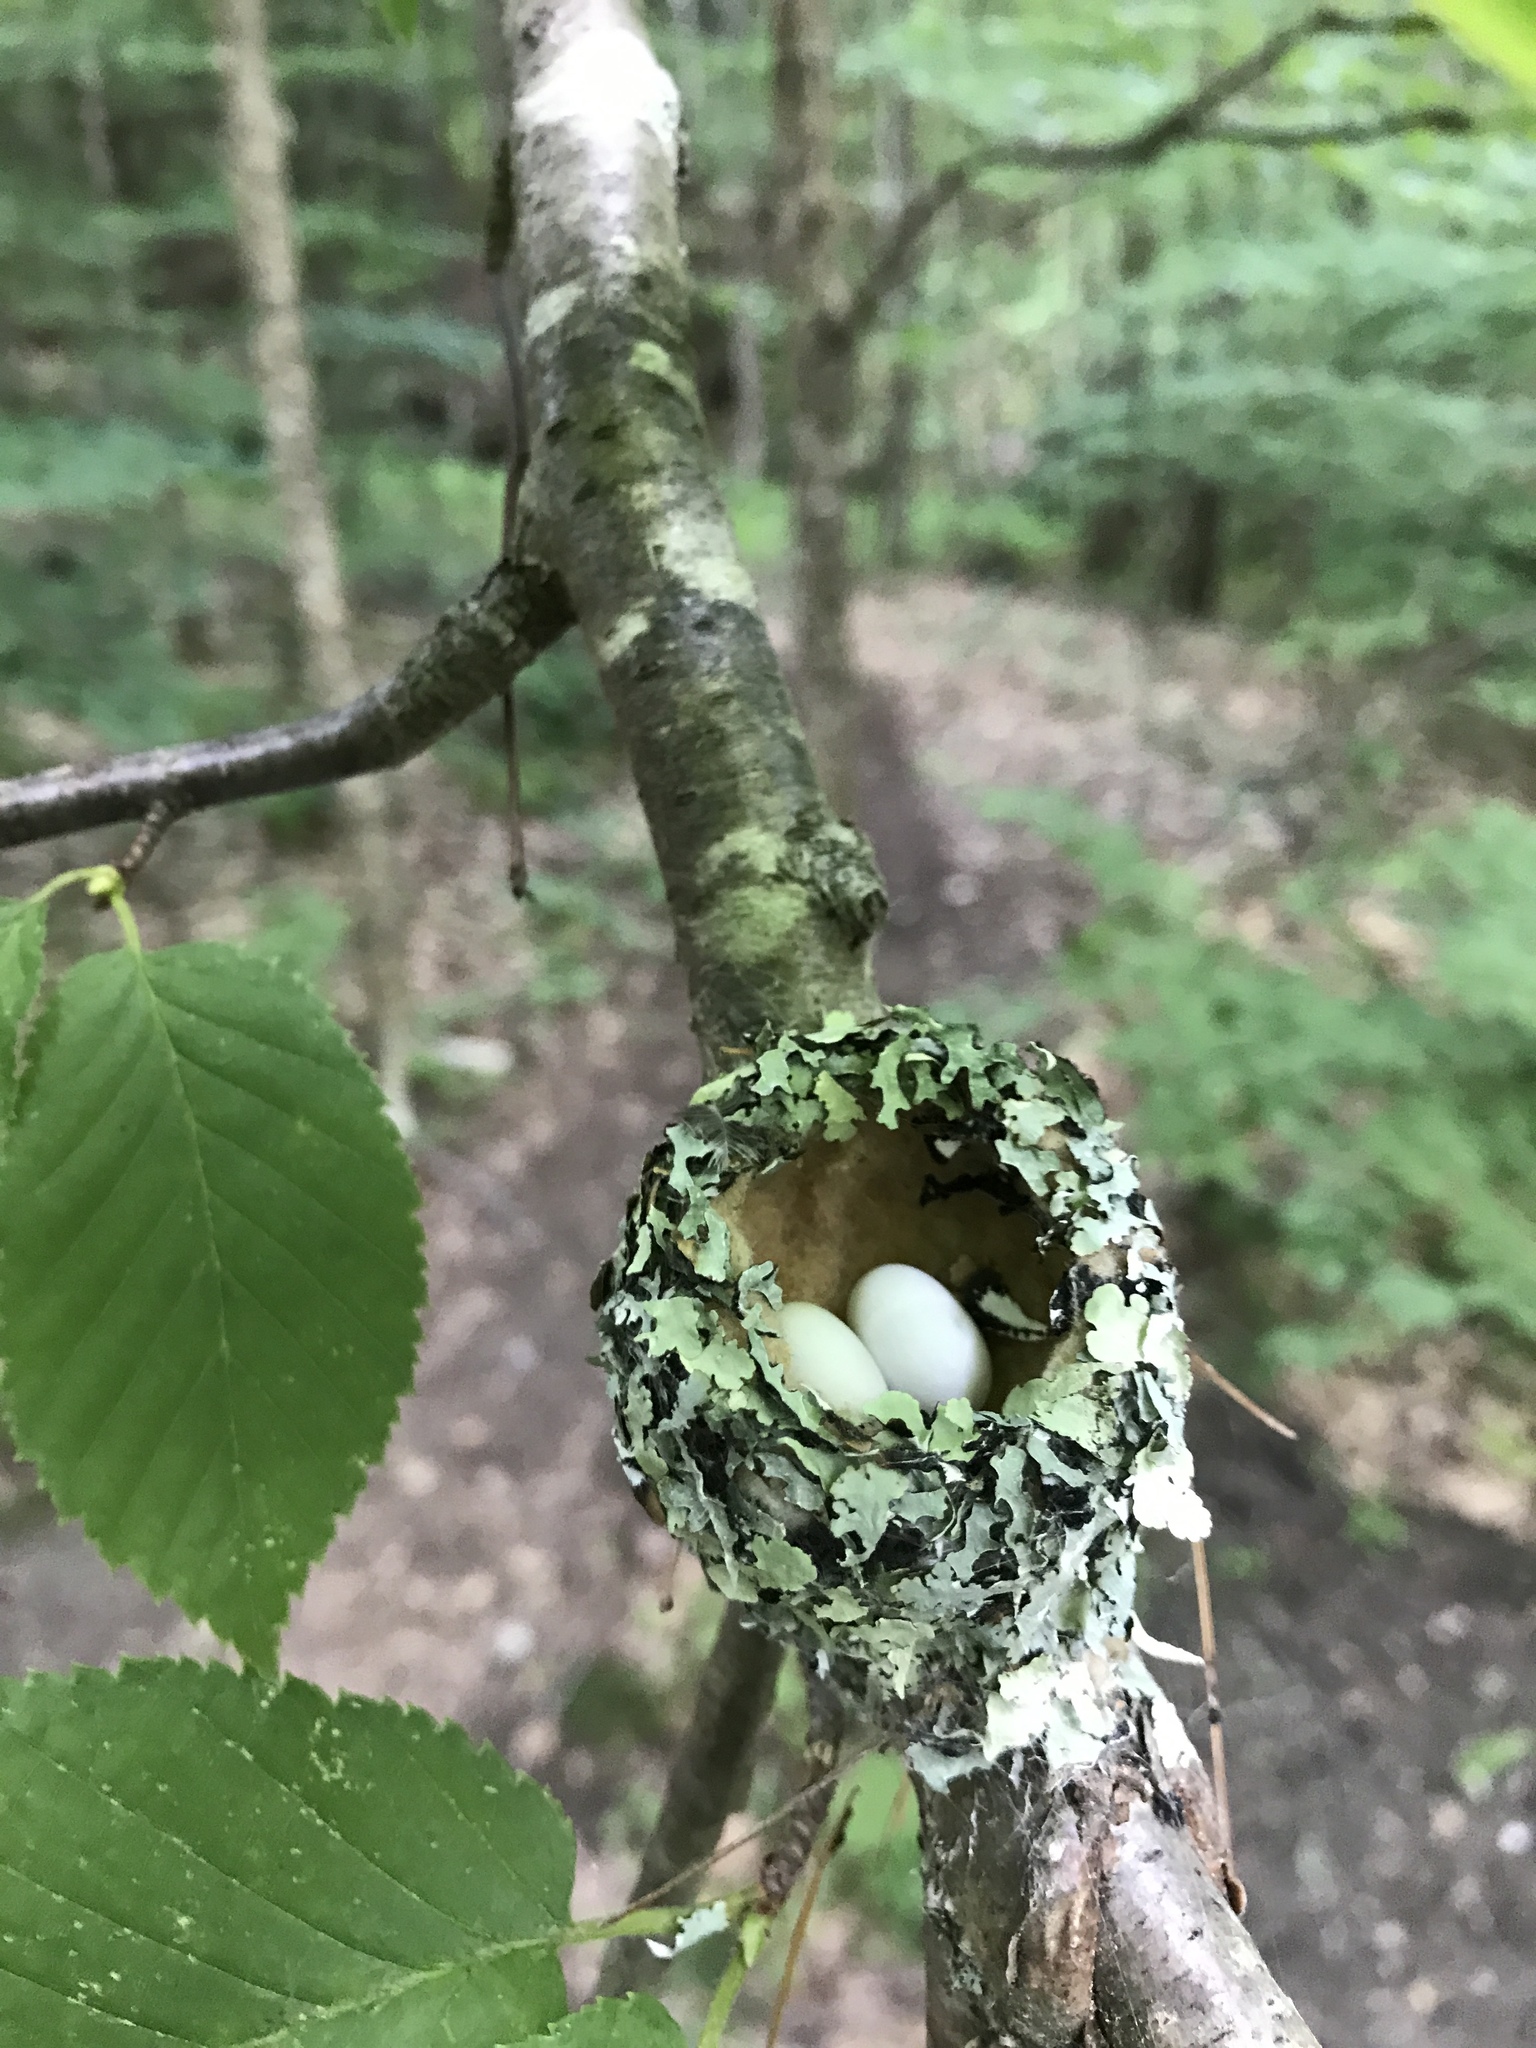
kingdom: Animalia
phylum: Chordata
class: Aves
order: Apodiformes
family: Trochilidae
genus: Archilochus
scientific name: Archilochus colubris
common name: Ruby-throated hummingbird
